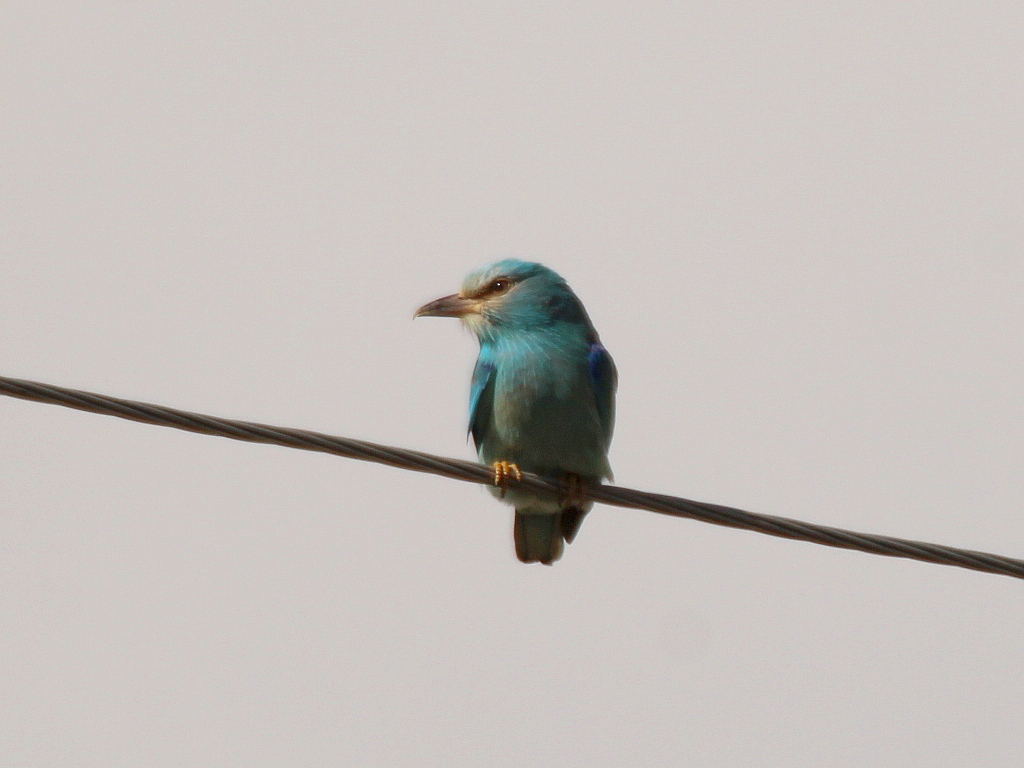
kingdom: Animalia
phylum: Chordata
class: Aves
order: Coraciiformes
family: Coraciidae
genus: Coracias
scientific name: Coracias garrulus
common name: European roller
